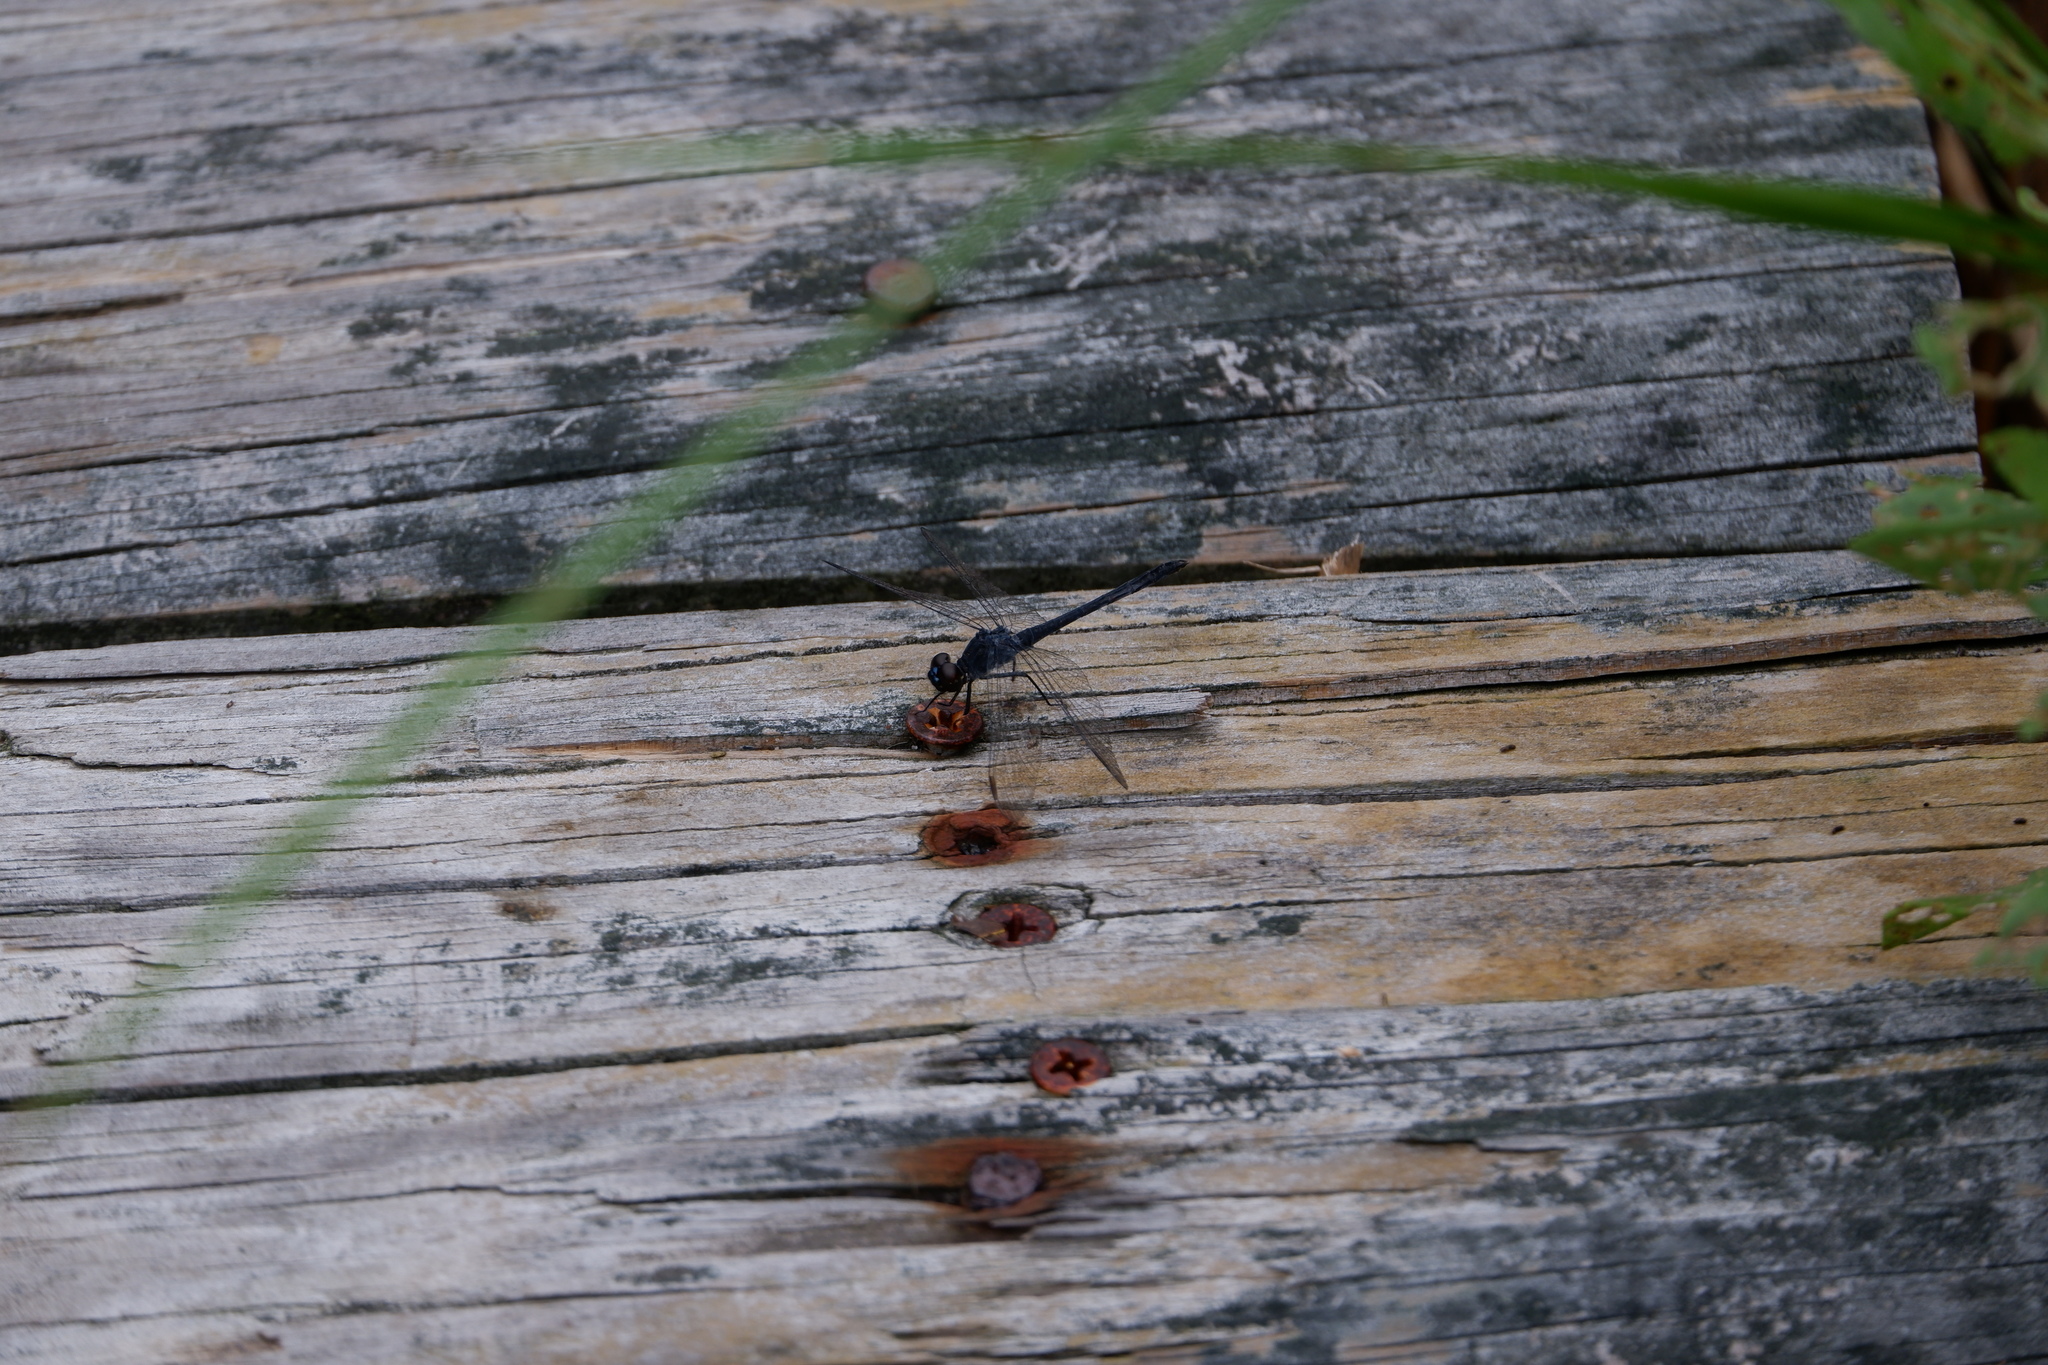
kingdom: Animalia
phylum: Arthropoda
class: Insecta
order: Odonata
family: Libellulidae
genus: Erythrodiplax
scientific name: Erythrodiplax berenice
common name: Seaside dragonlet
